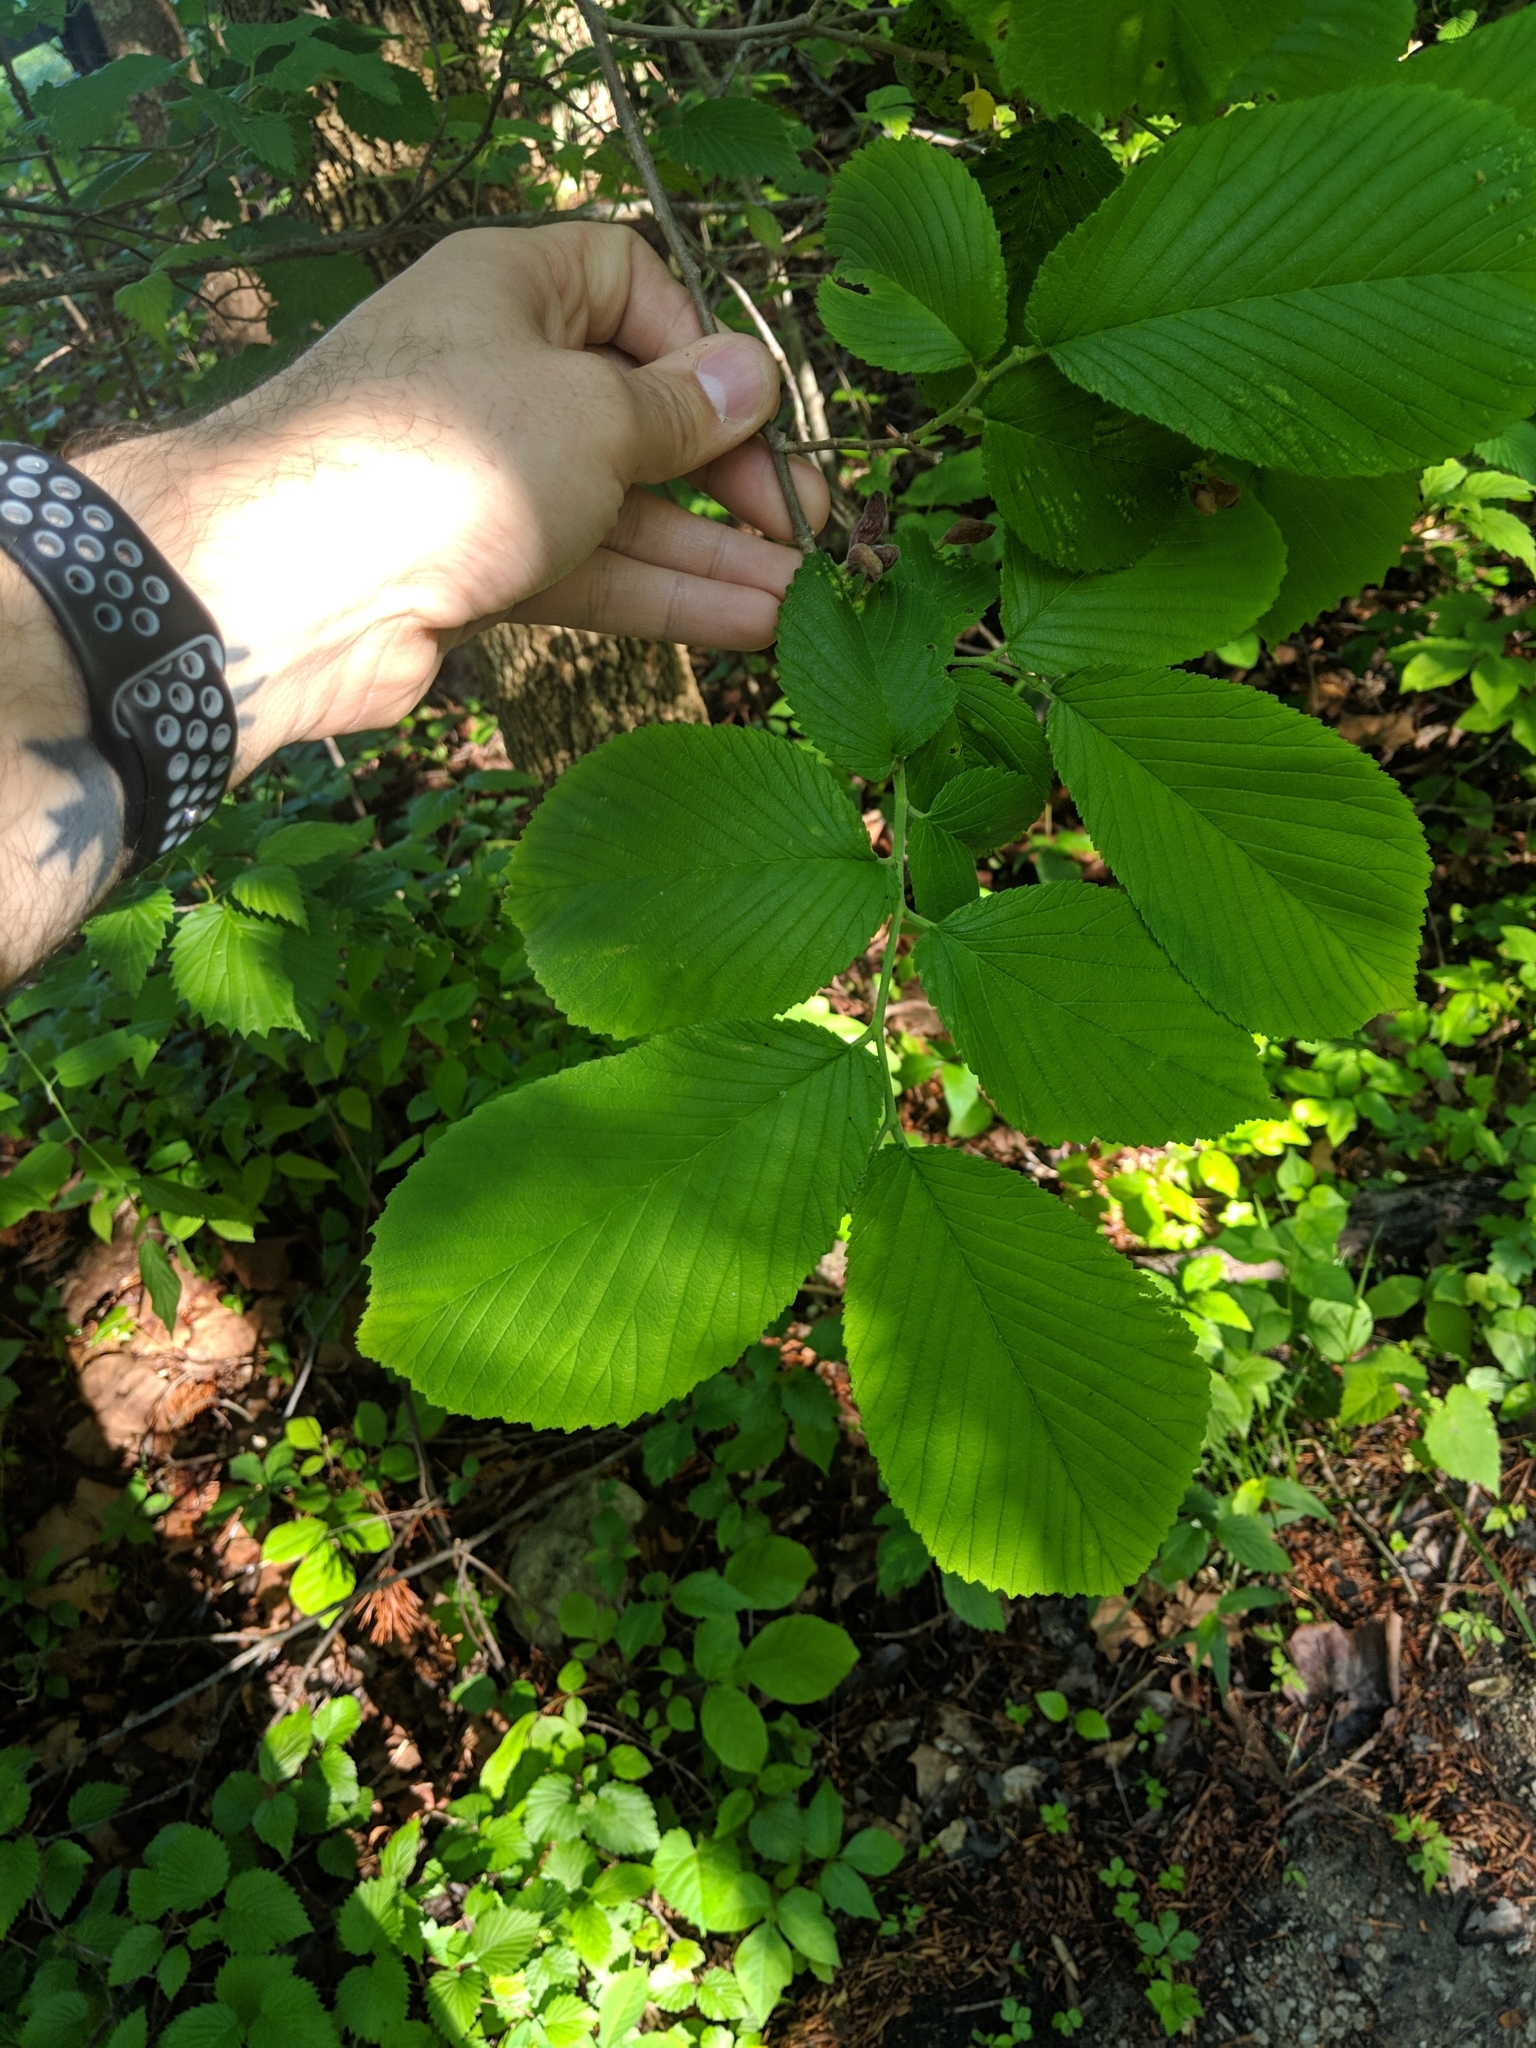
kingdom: Plantae
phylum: Tracheophyta
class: Magnoliopsida
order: Rosales
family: Ulmaceae
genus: Ulmus
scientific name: Ulmus rubra
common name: Slippery elm
